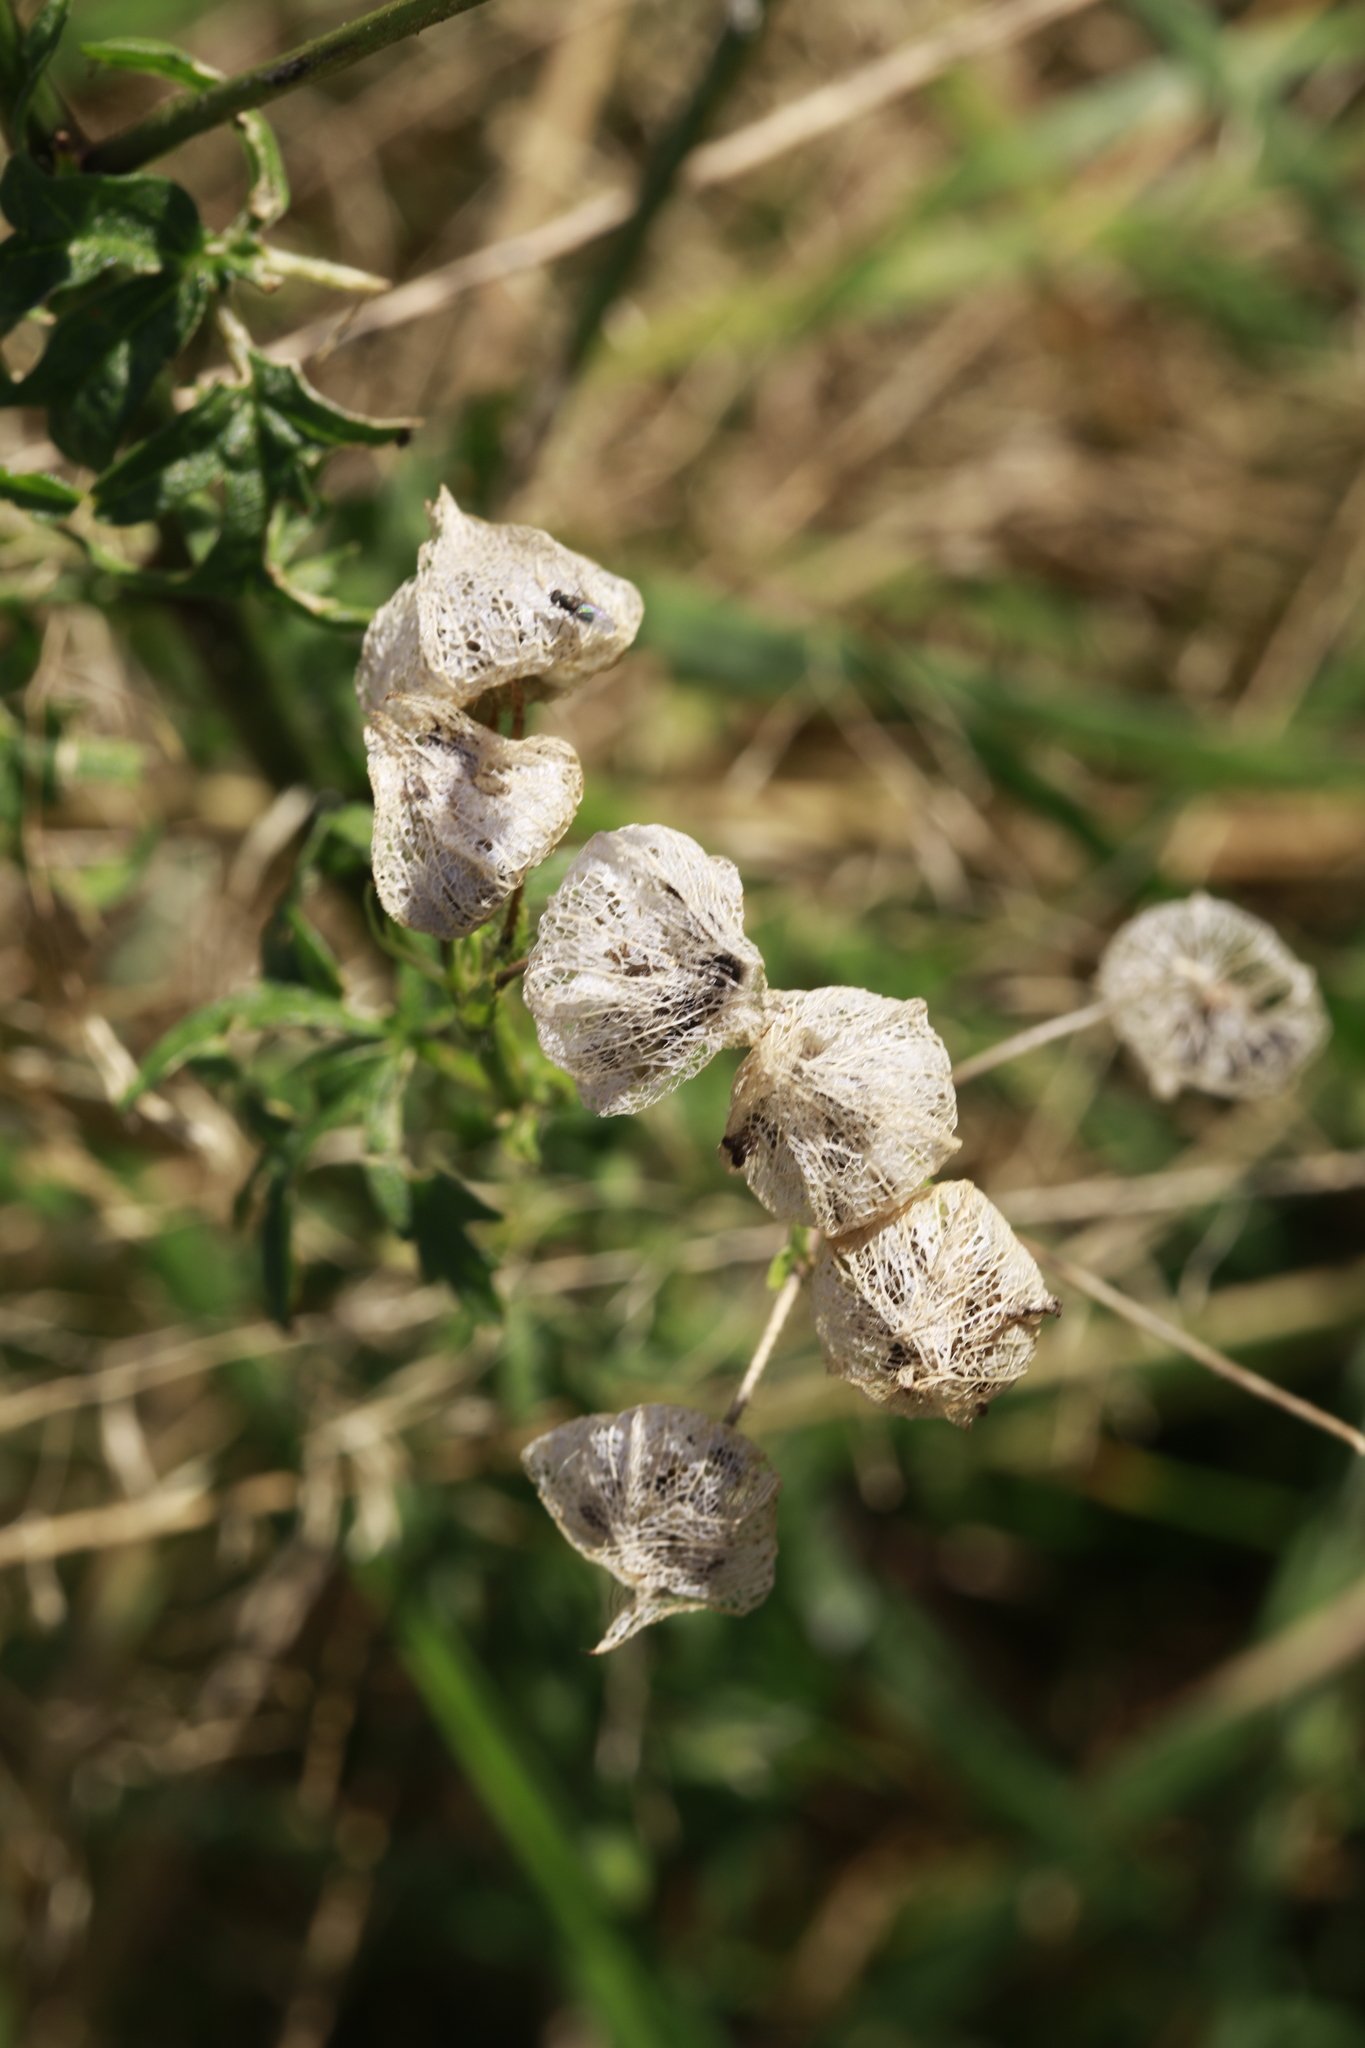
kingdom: Plantae
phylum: Tracheophyta
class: Magnoliopsida
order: Malvales
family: Malvaceae
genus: Malva
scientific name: Malva moschata
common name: Musk mallow
